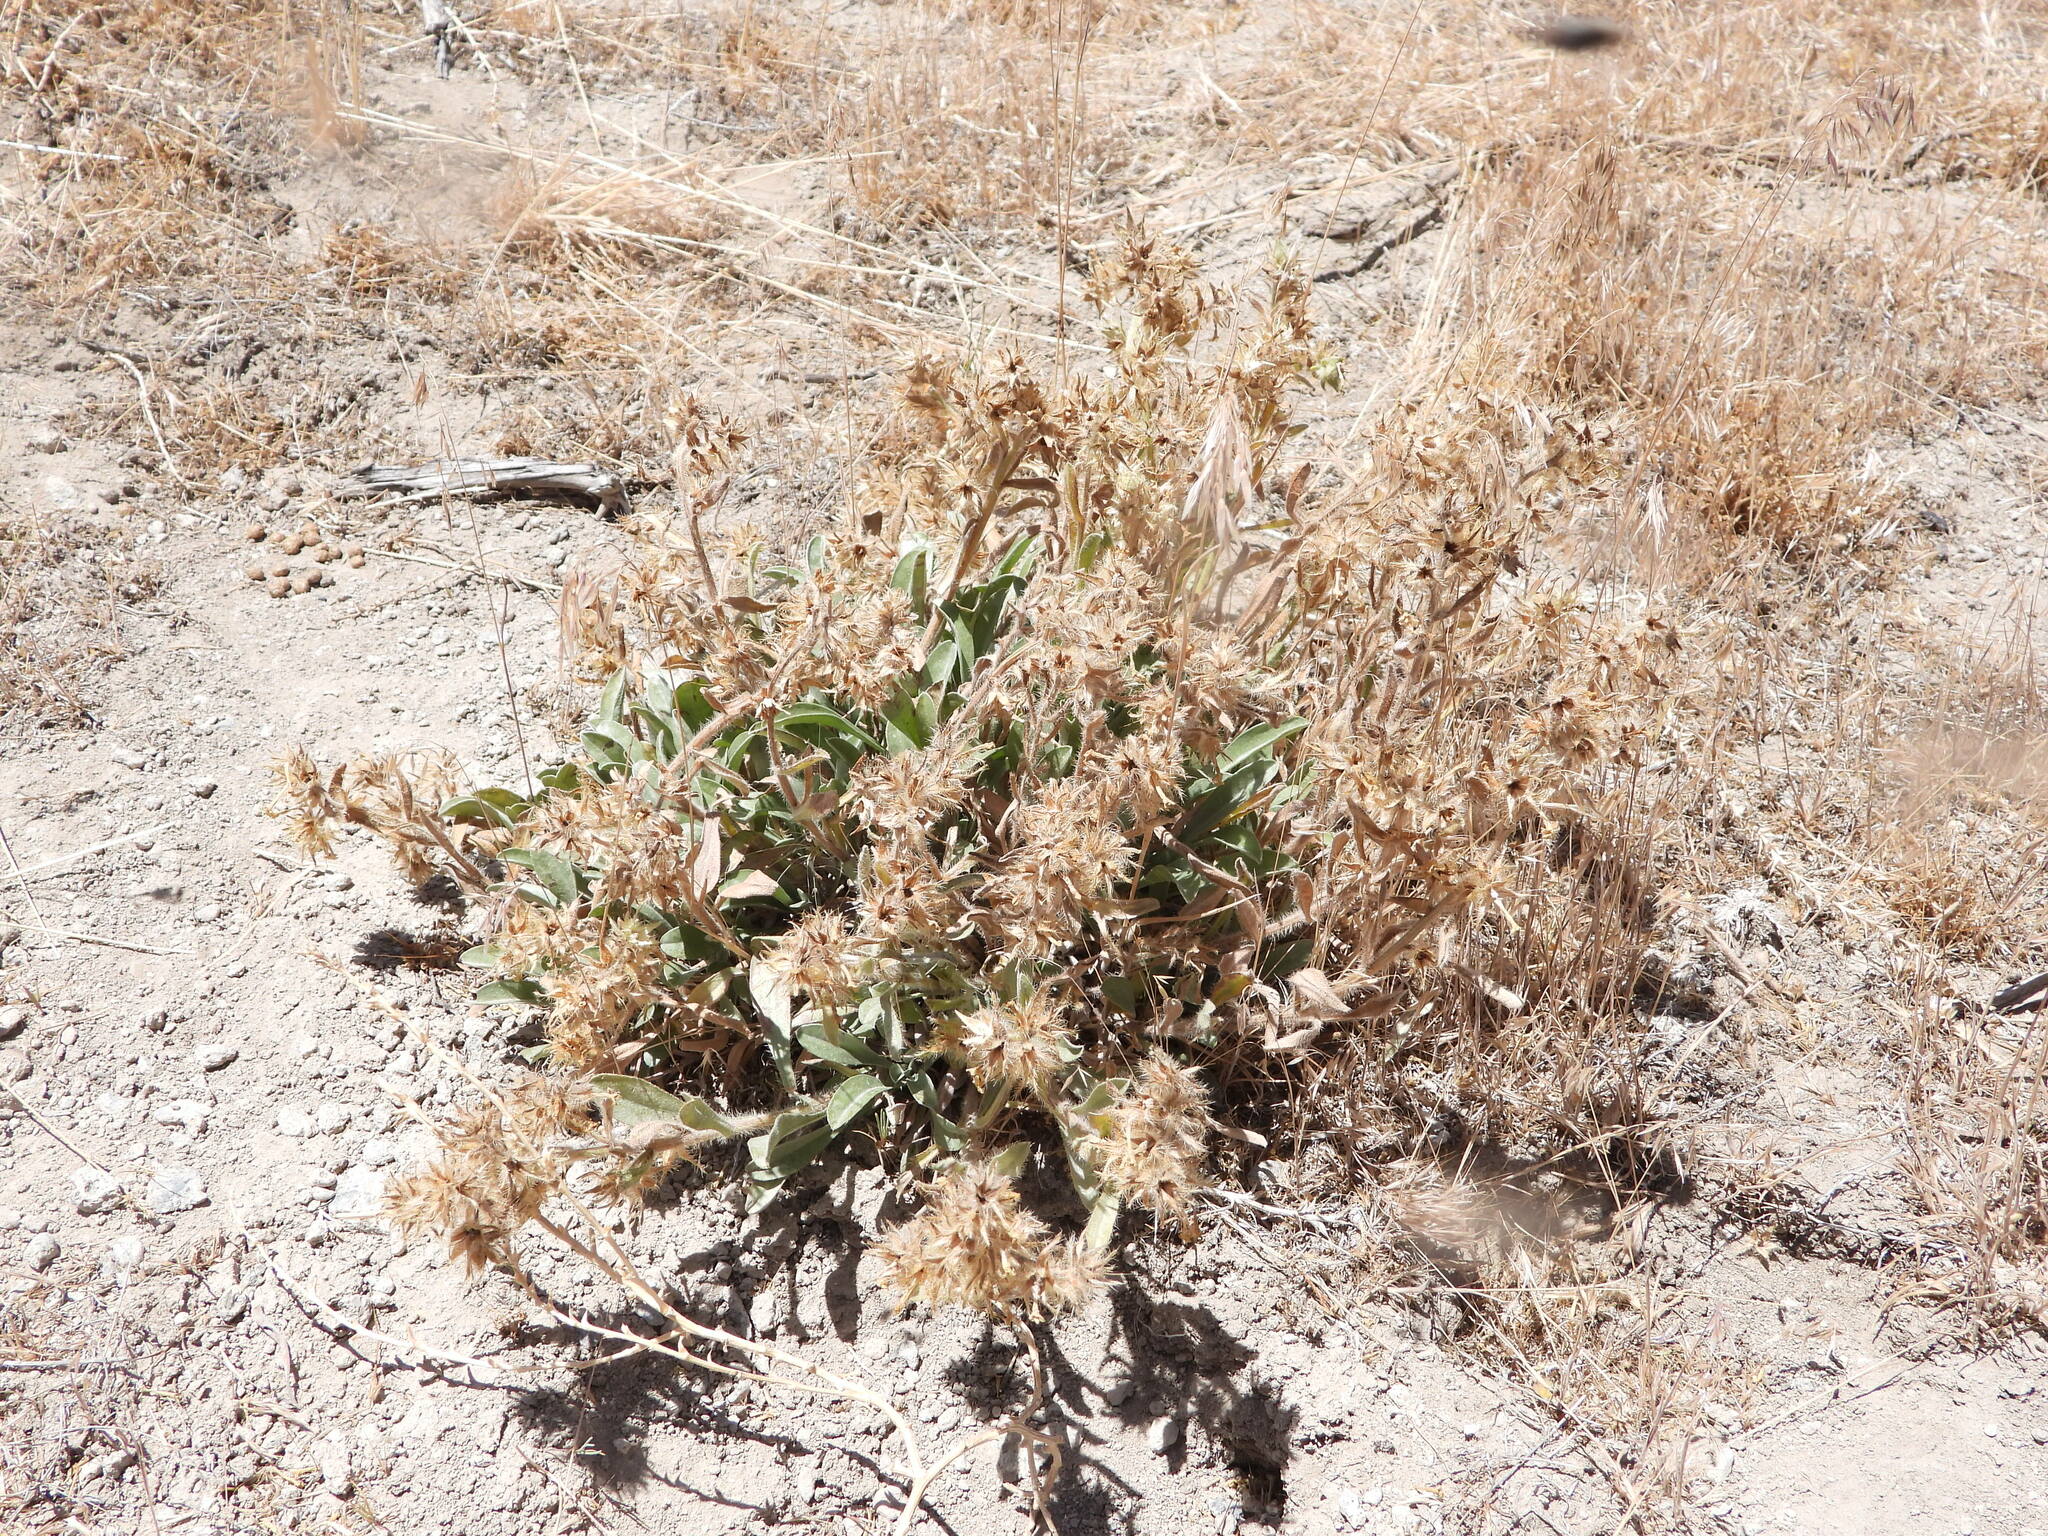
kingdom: Plantae
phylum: Tracheophyta
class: Magnoliopsida
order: Boraginales
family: Boraginaceae
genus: Oreocarya
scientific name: Oreocarya flavoculata
